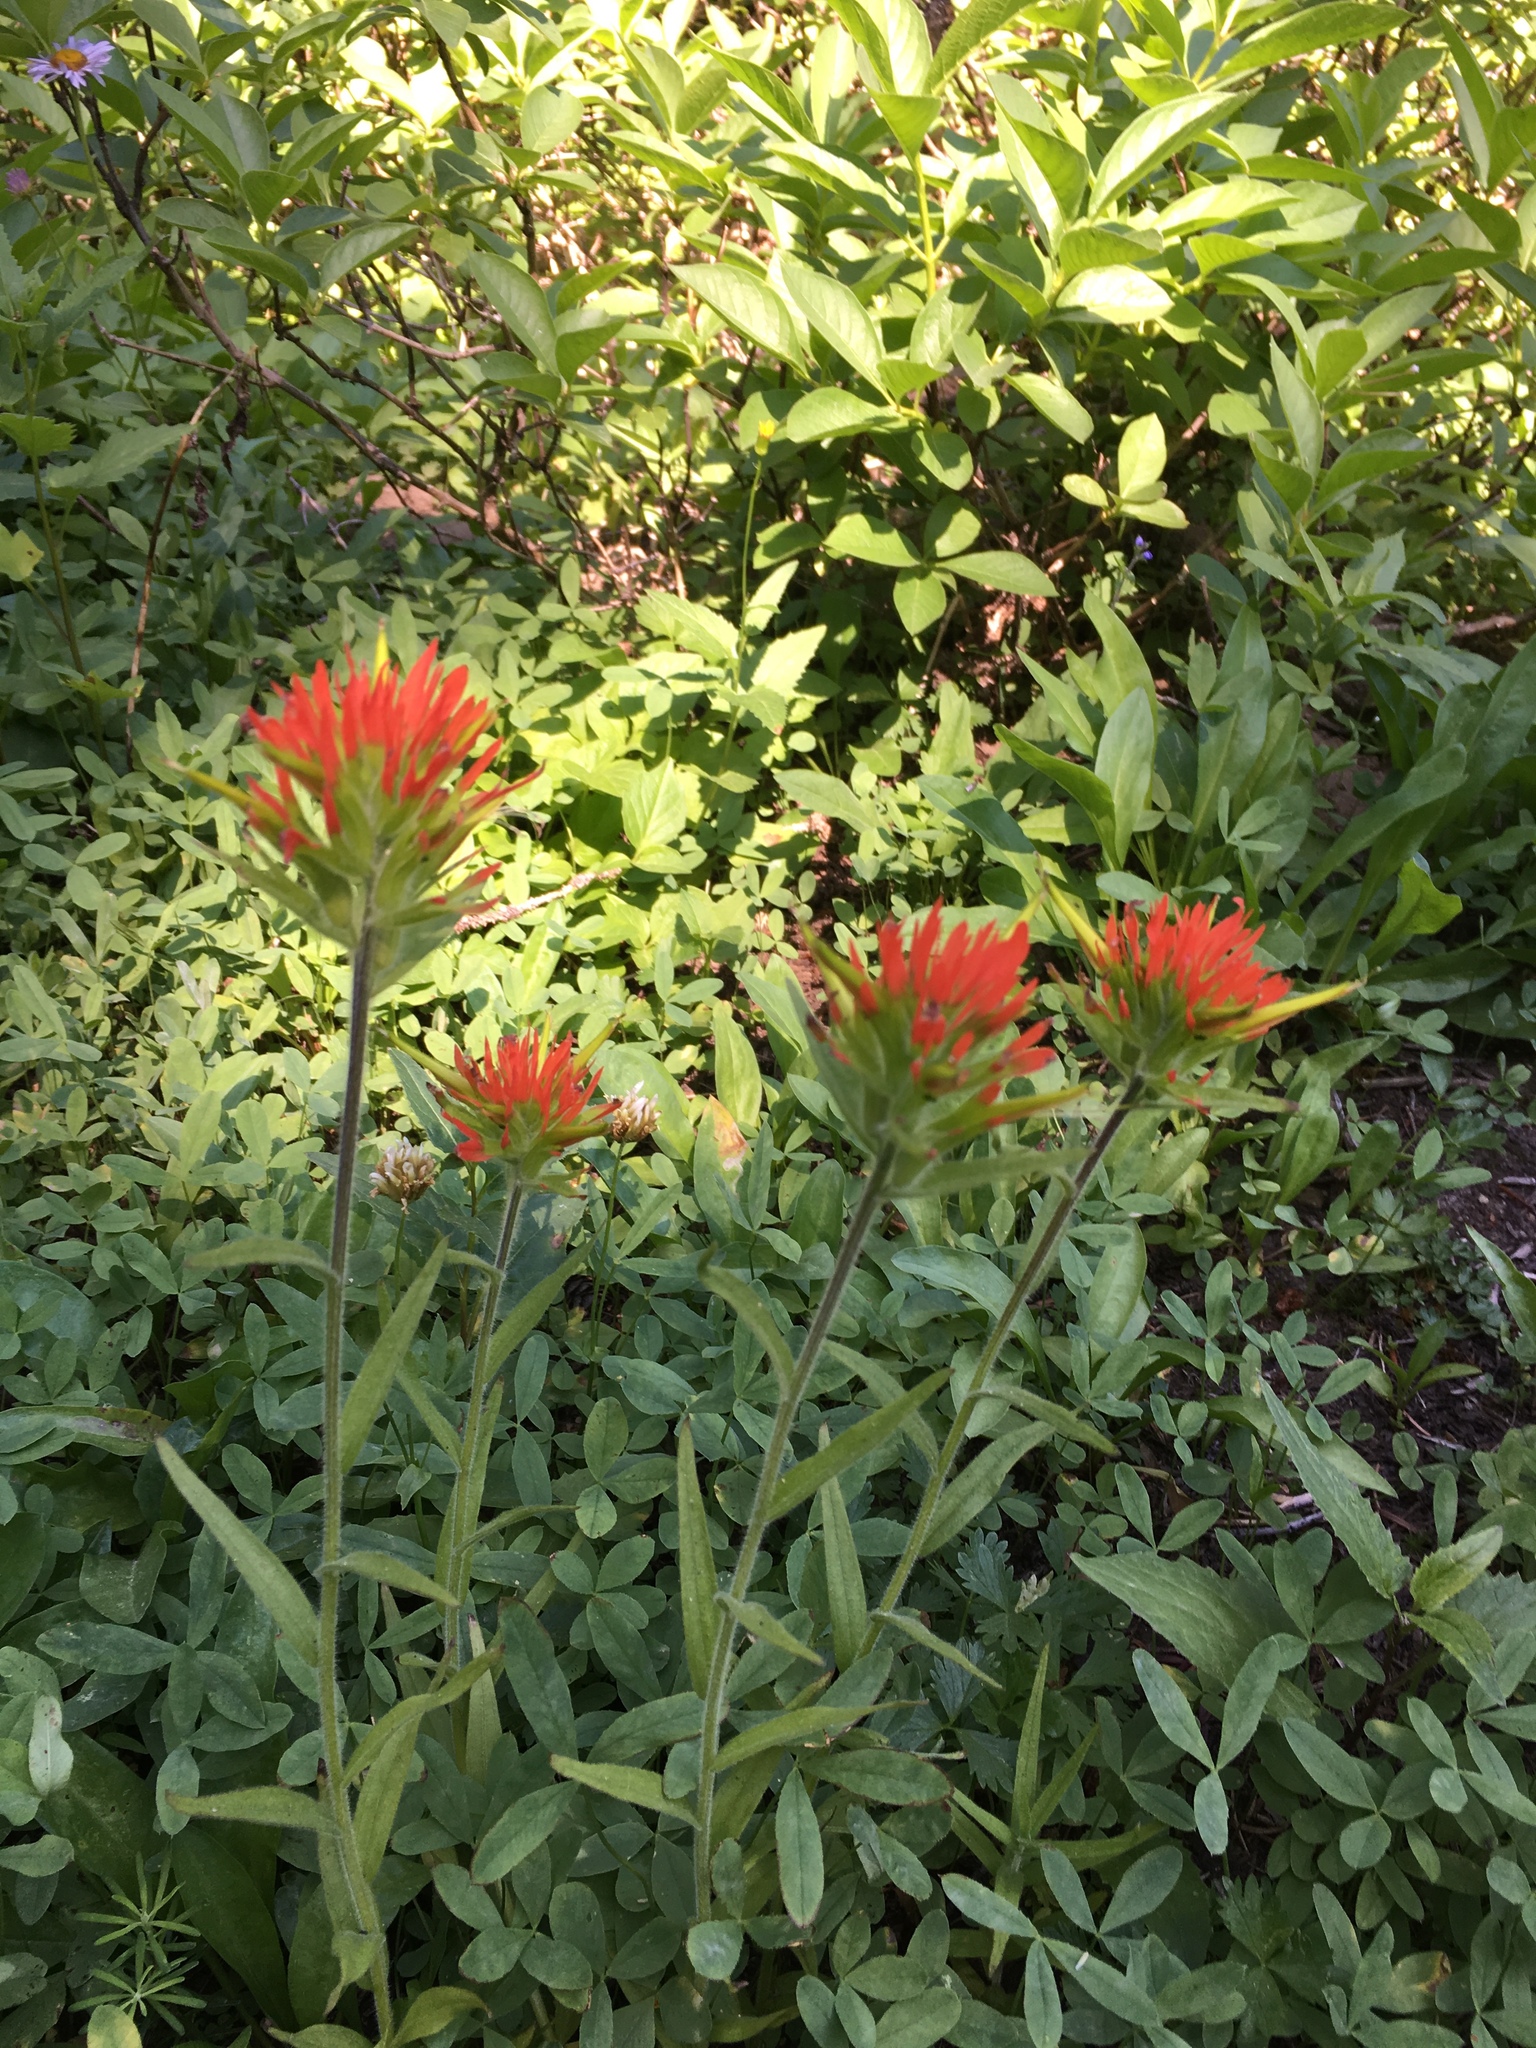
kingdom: Plantae
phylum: Tracheophyta
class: Magnoliopsida
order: Lamiales
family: Orobanchaceae
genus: Castilleja
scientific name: Castilleja suksdorfii
